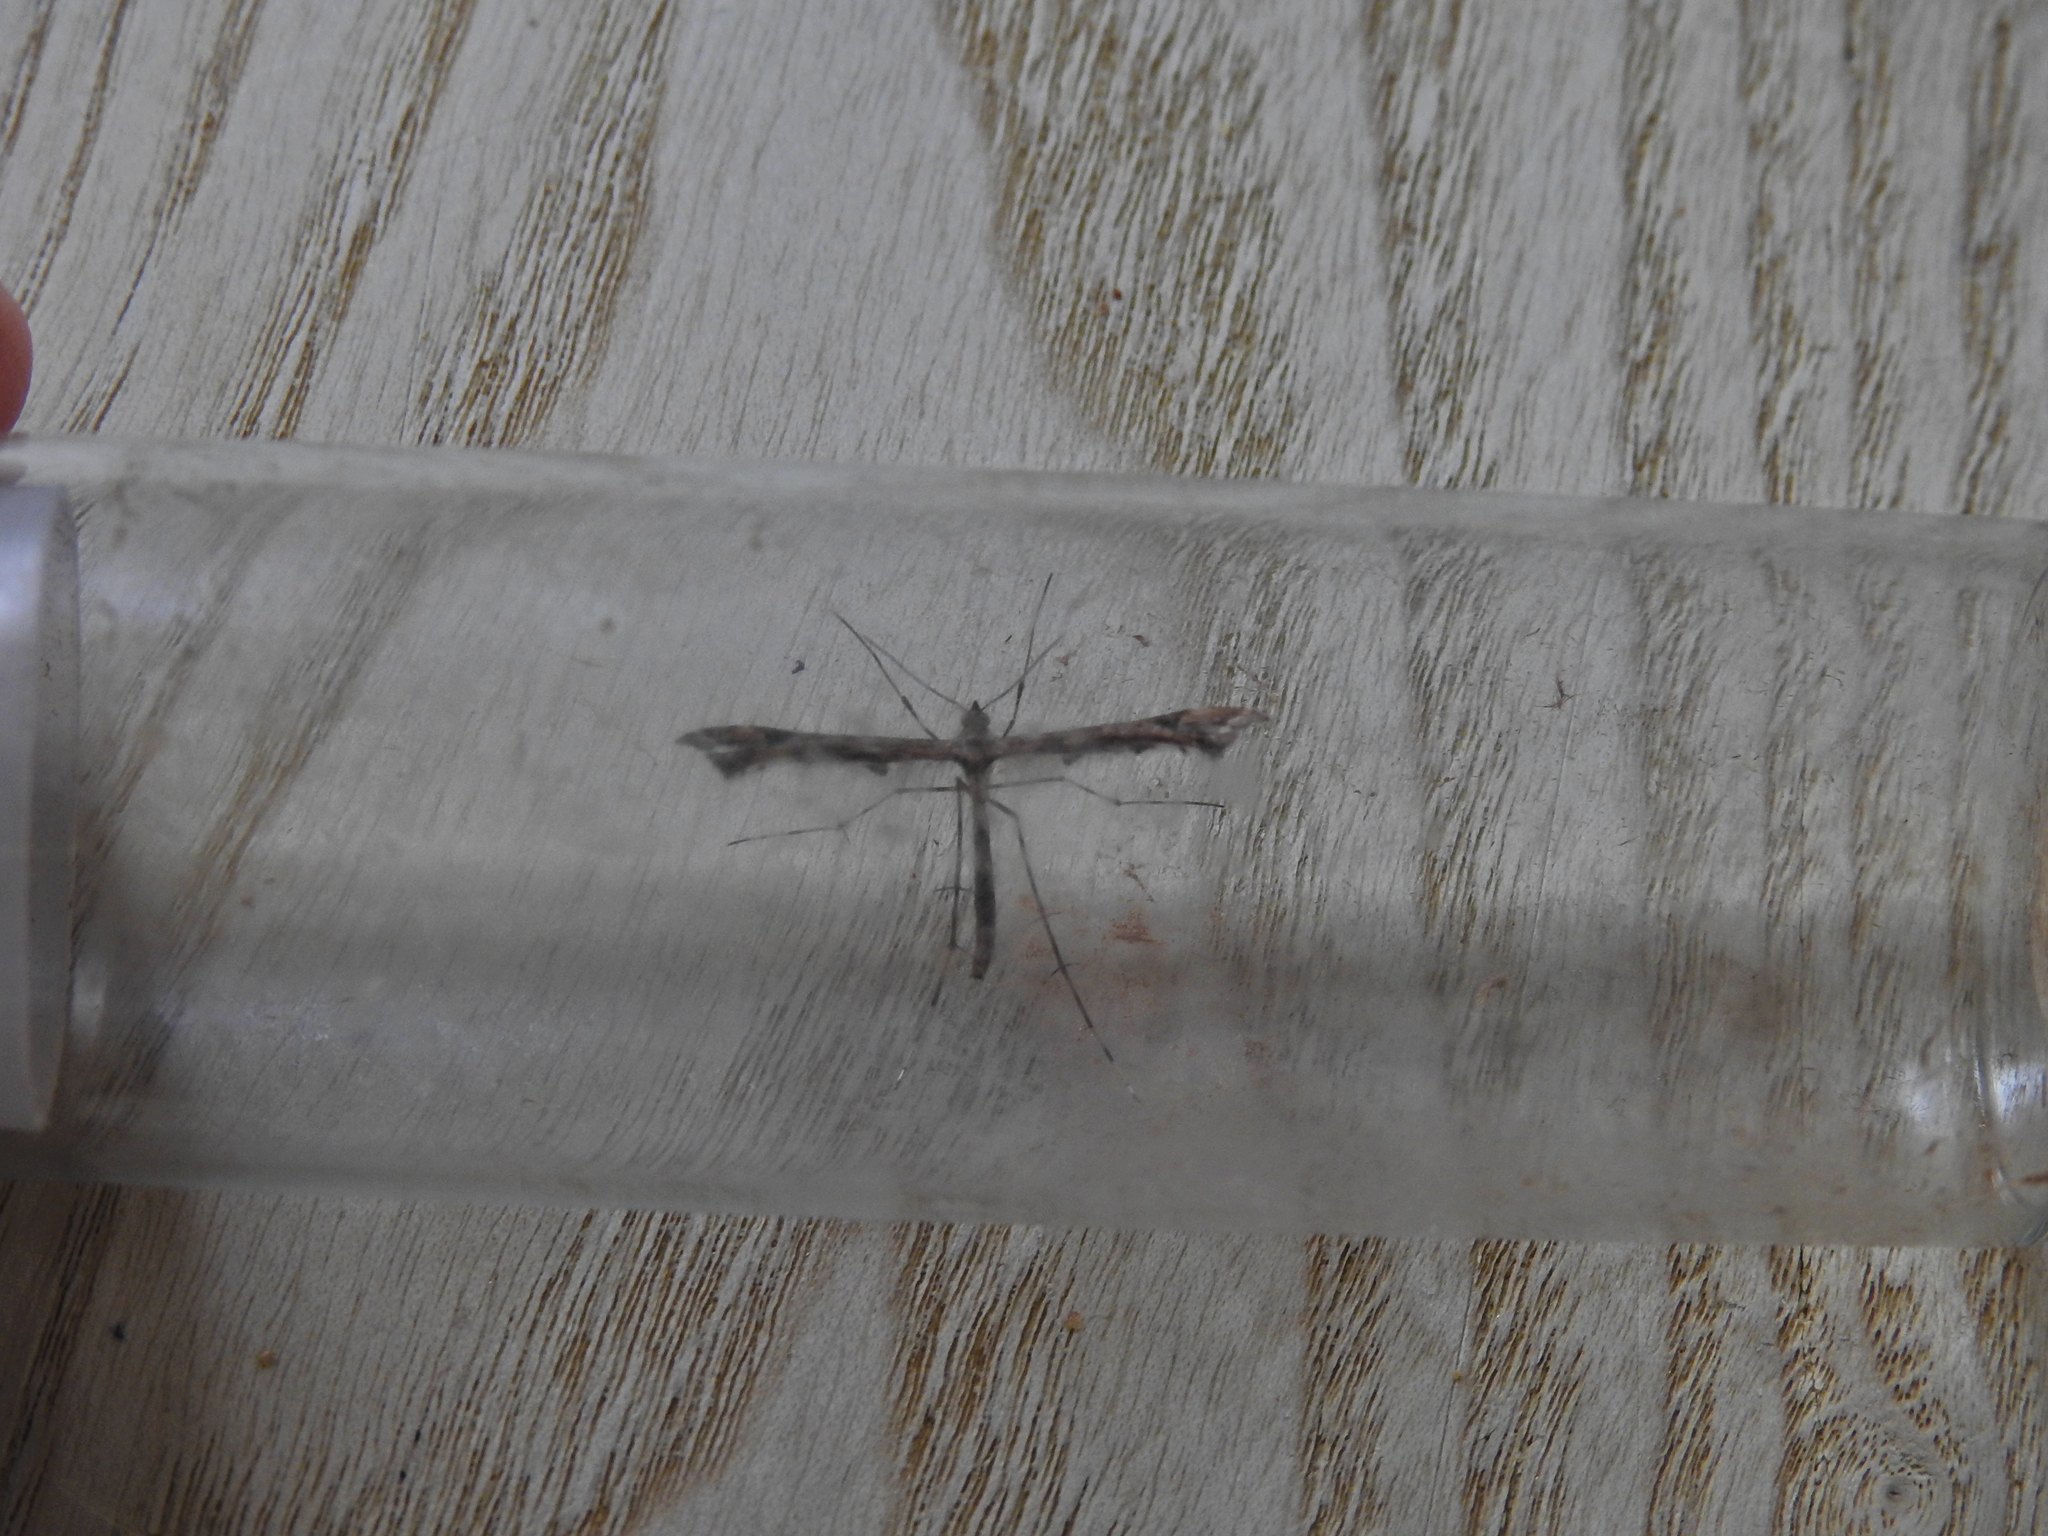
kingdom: Animalia
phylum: Arthropoda
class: Insecta
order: Lepidoptera
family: Pterophoridae
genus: Amblyptilia
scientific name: Amblyptilia acanthadactyla
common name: Beautiful plume
